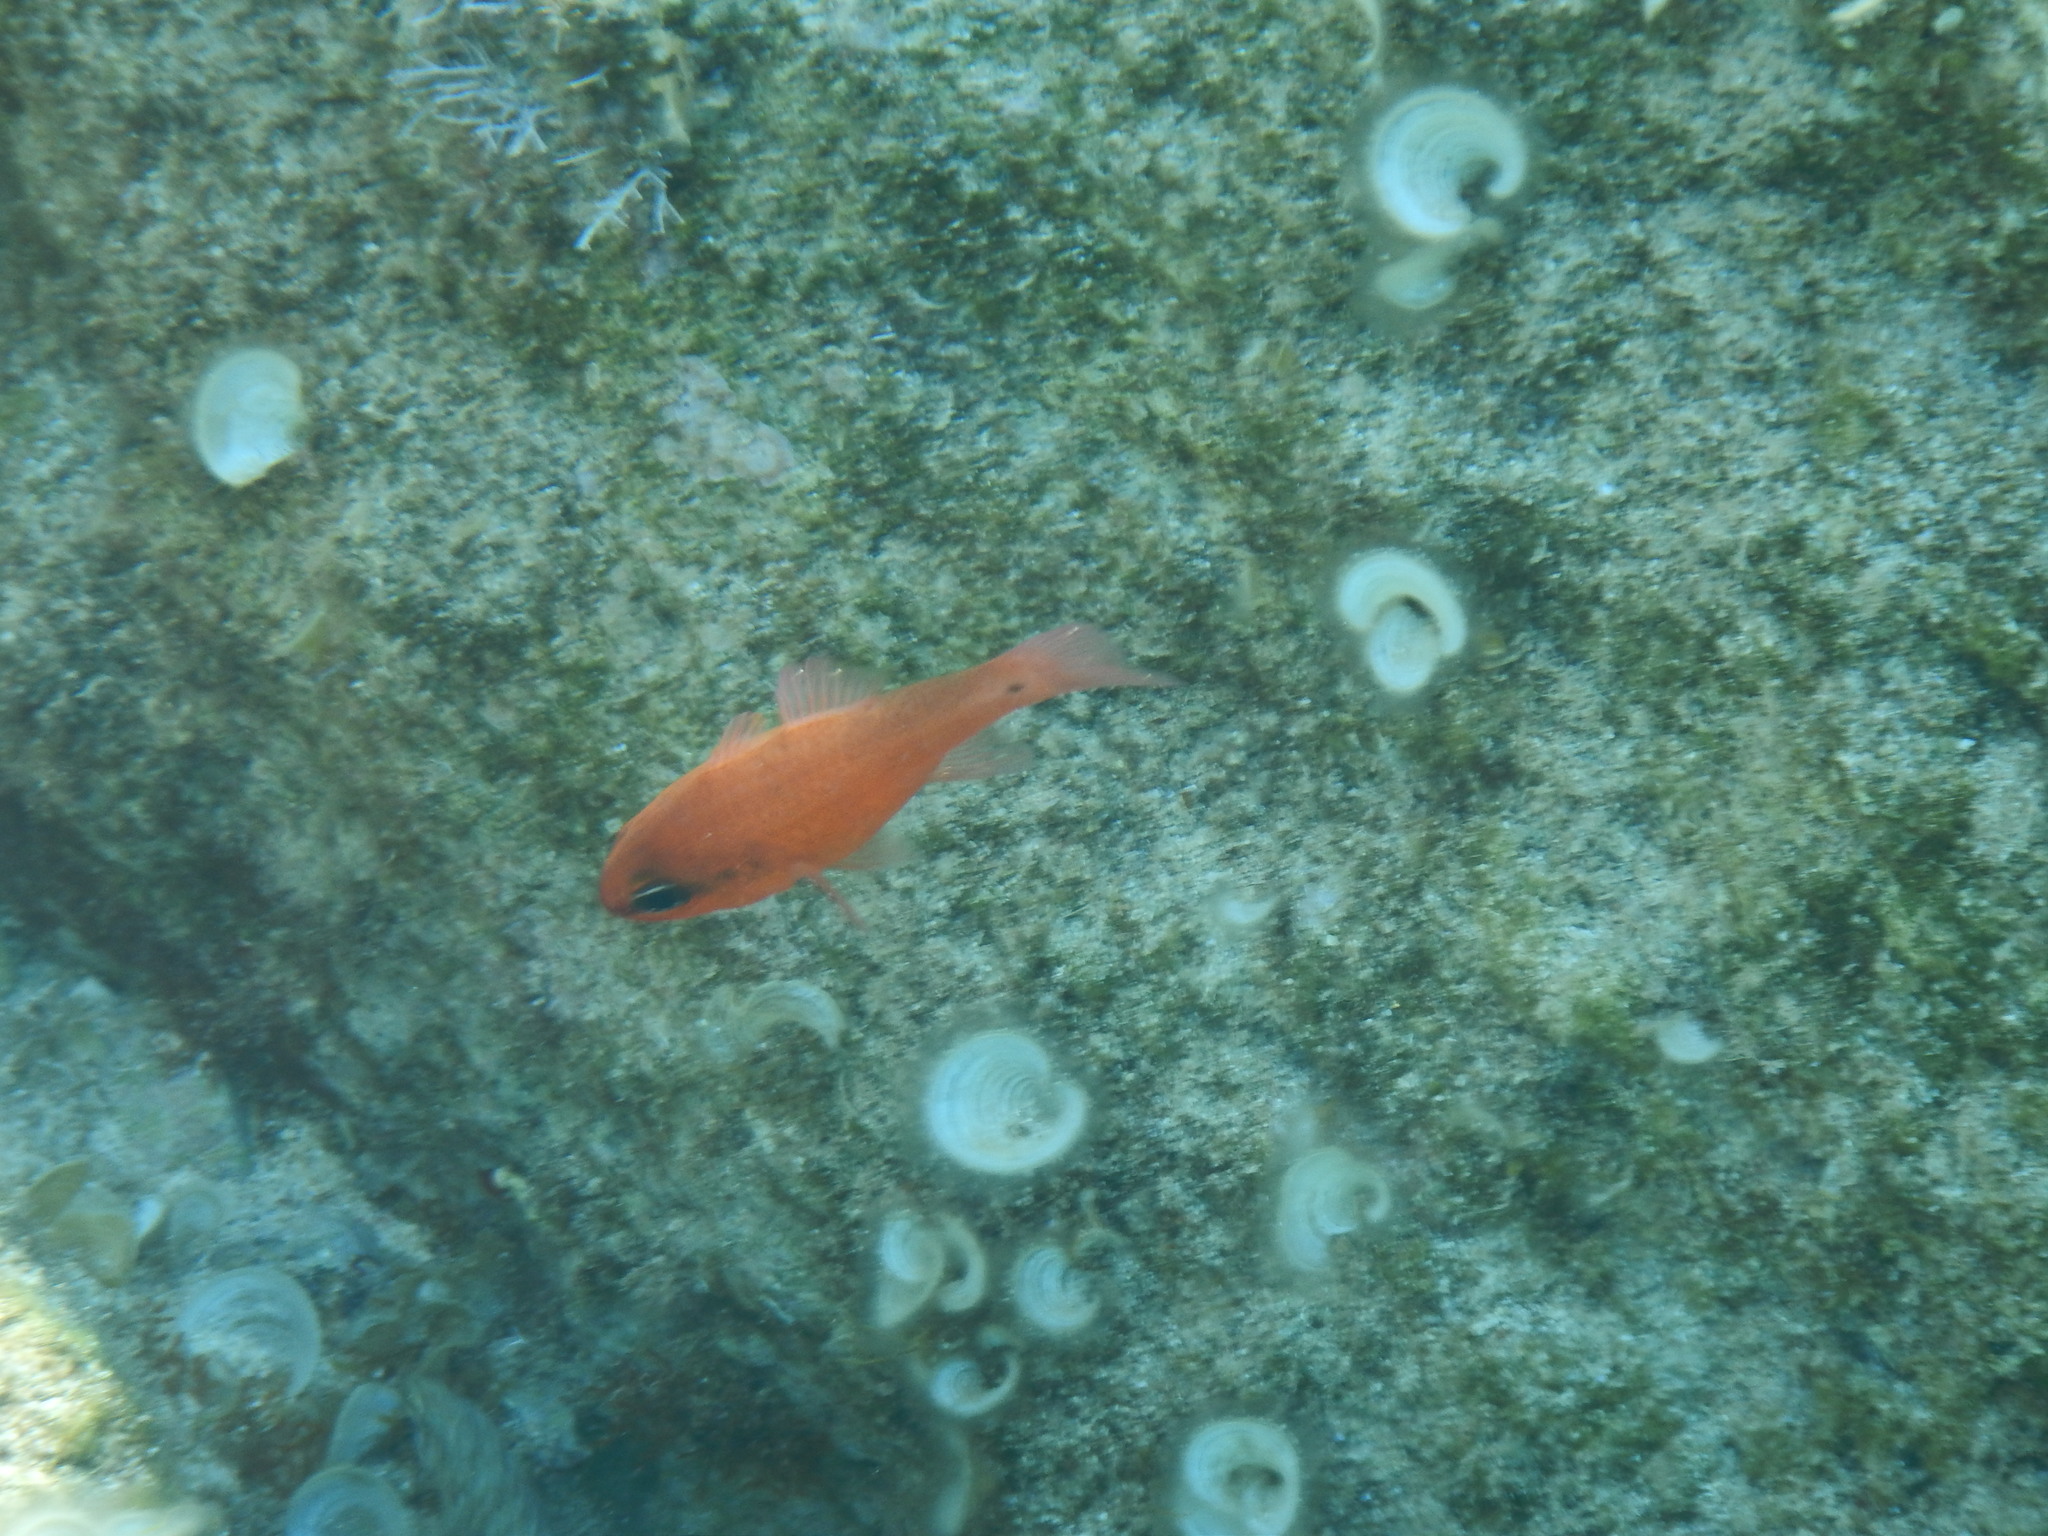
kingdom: Animalia
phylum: Chordata
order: Perciformes
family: Apogonidae
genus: Apogon
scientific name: Apogon imberbis
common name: Cardinal fish
